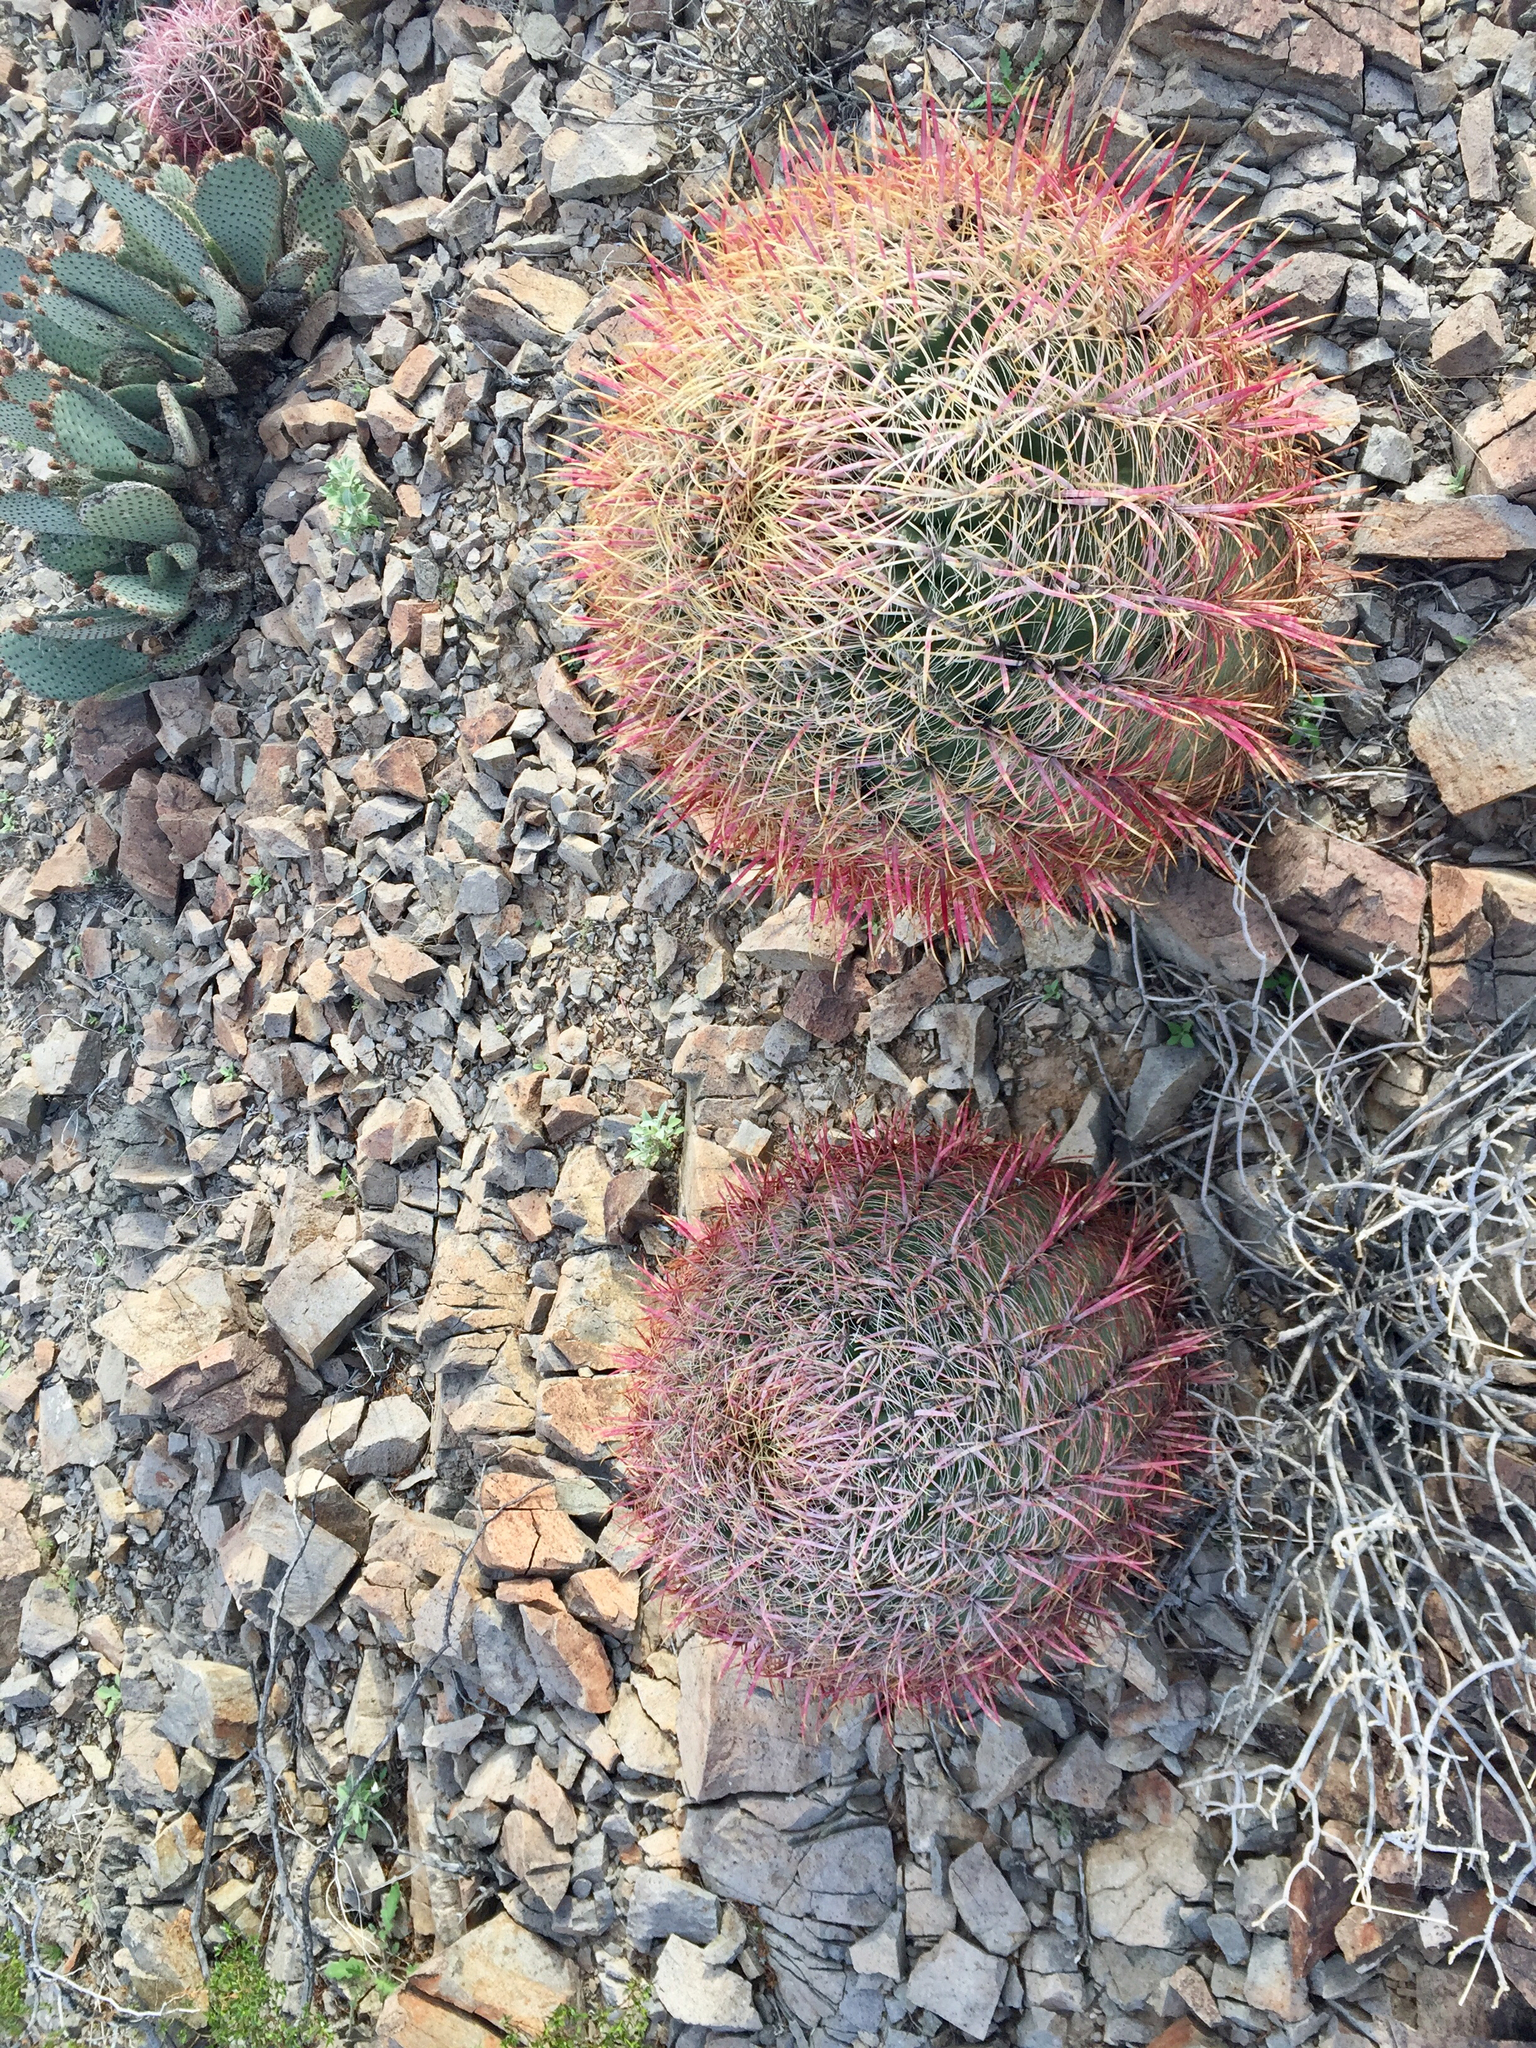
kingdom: Plantae
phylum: Tracheophyta
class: Magnoliopsida
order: Caryophyllales
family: Cactaceae
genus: Ferocactus
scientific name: Ferocactus cylindraceus
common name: California barrel cactus
